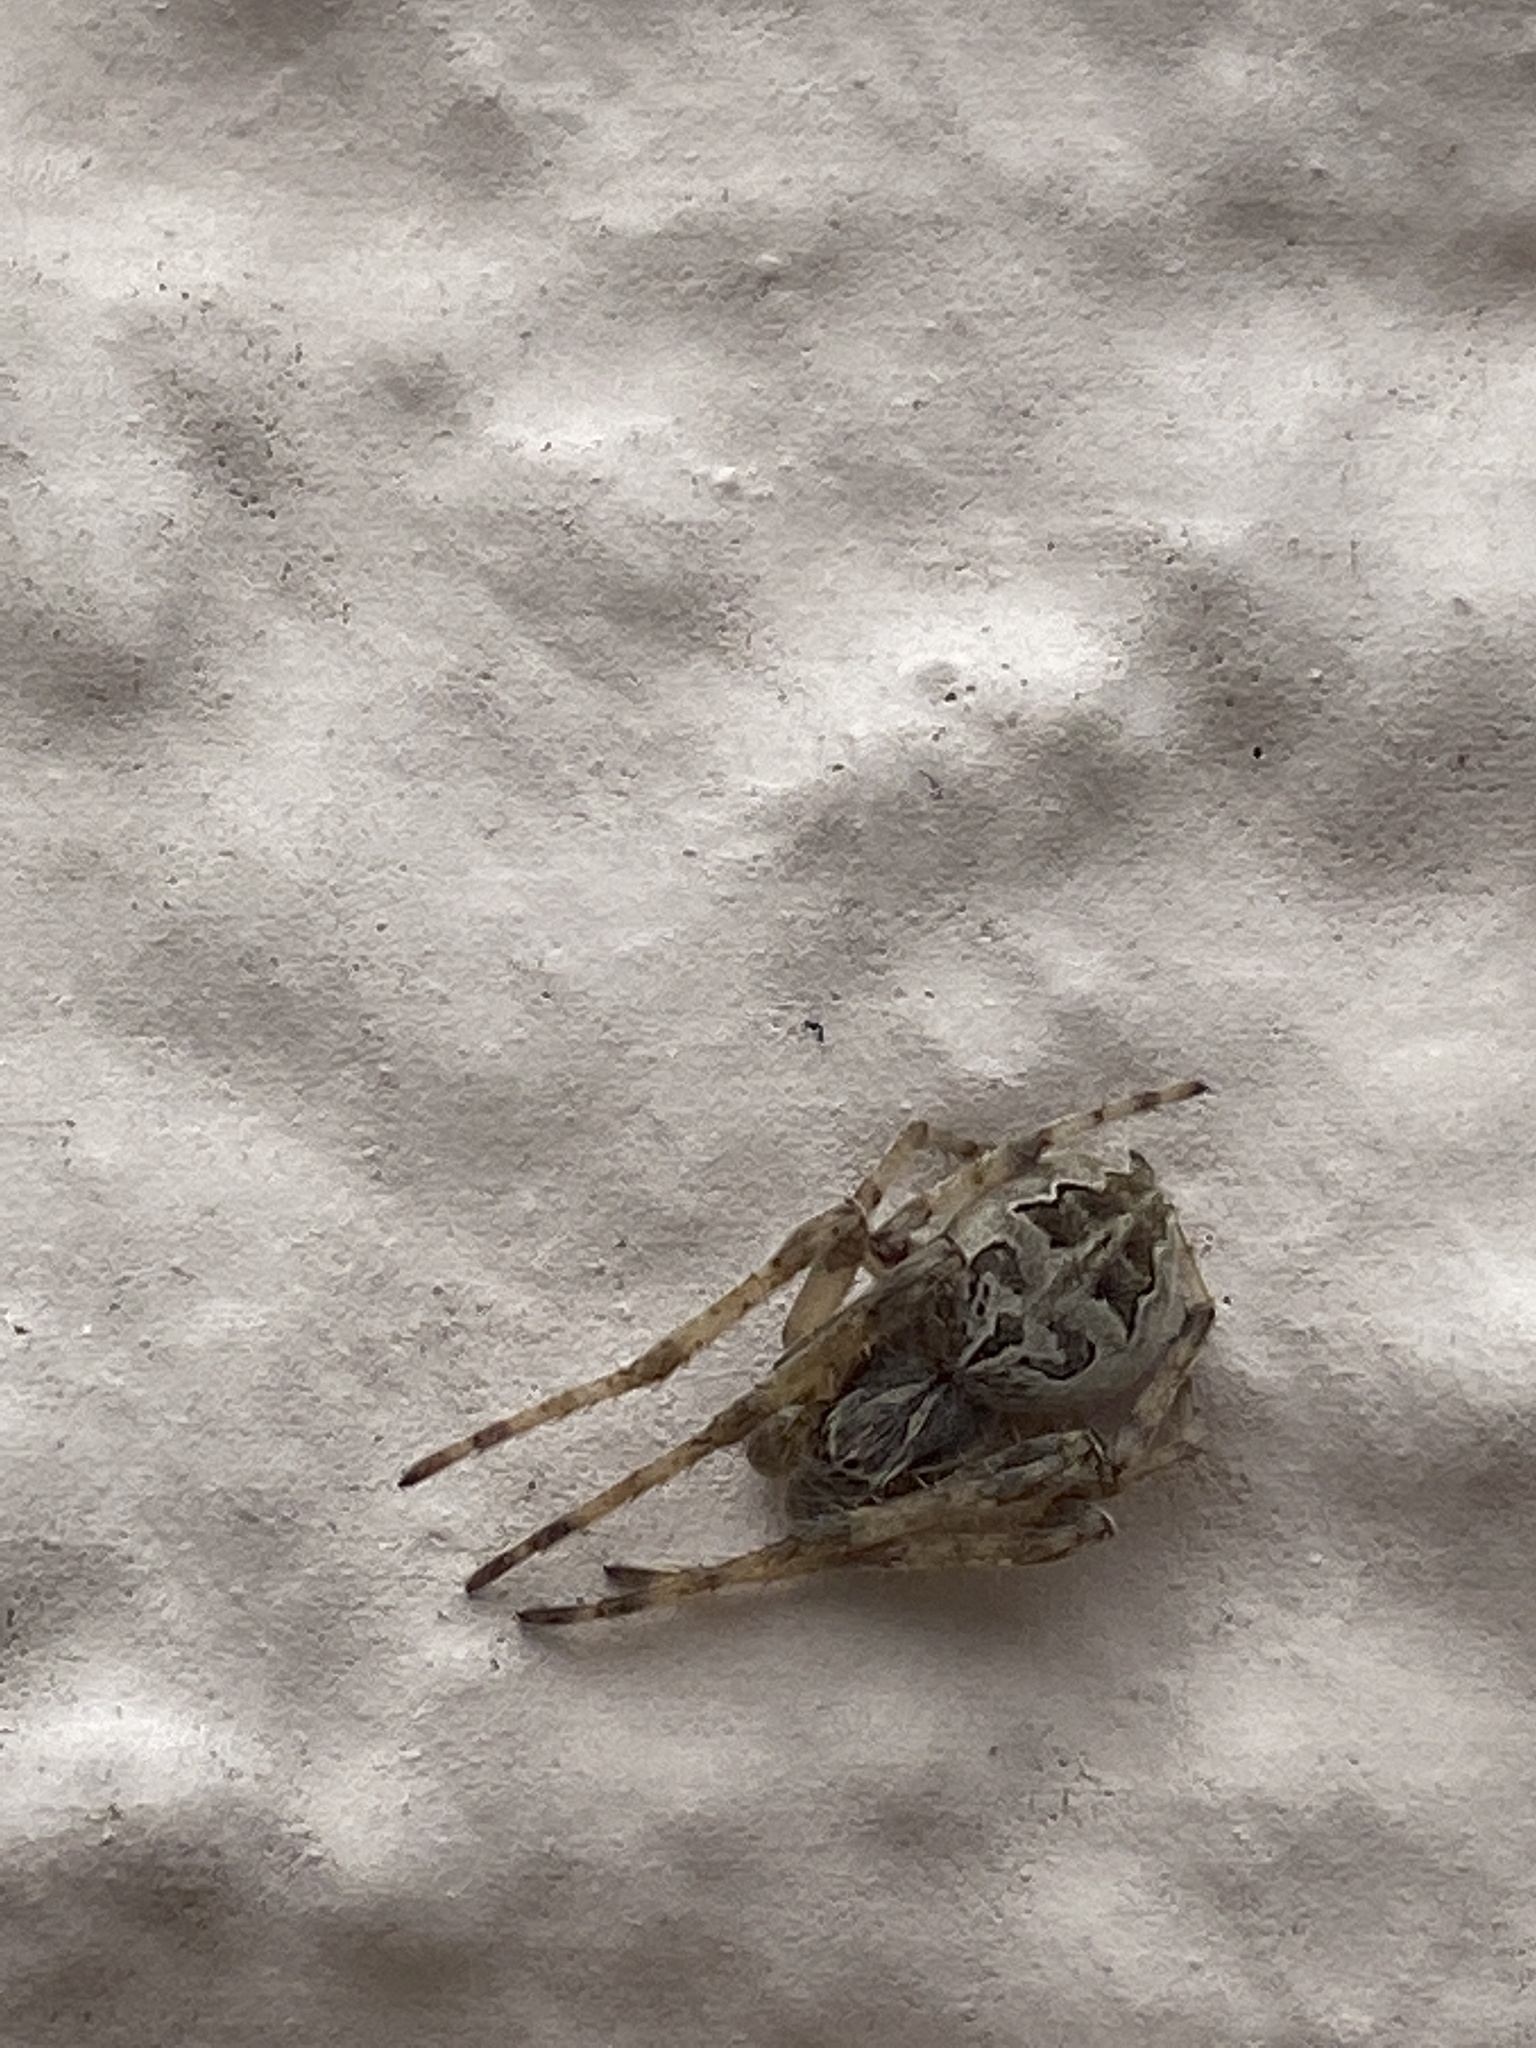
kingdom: Animalia
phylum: Arthropoda
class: Arachnida
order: Araneae
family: Araneidae
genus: Larinioides
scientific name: Larinioides sclopetarius
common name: Bridge orbweaver
